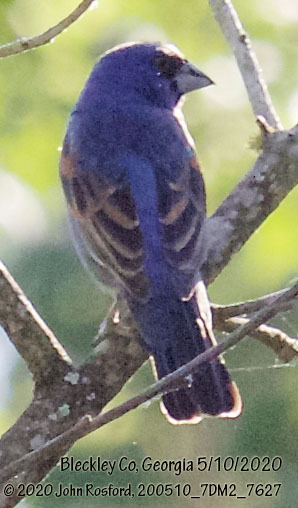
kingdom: Animalia
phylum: Chordata
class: Aves
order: Passeriformes
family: Cardinalidae
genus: Passerina
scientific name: Passerina caerulea
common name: Blue grosbeak
